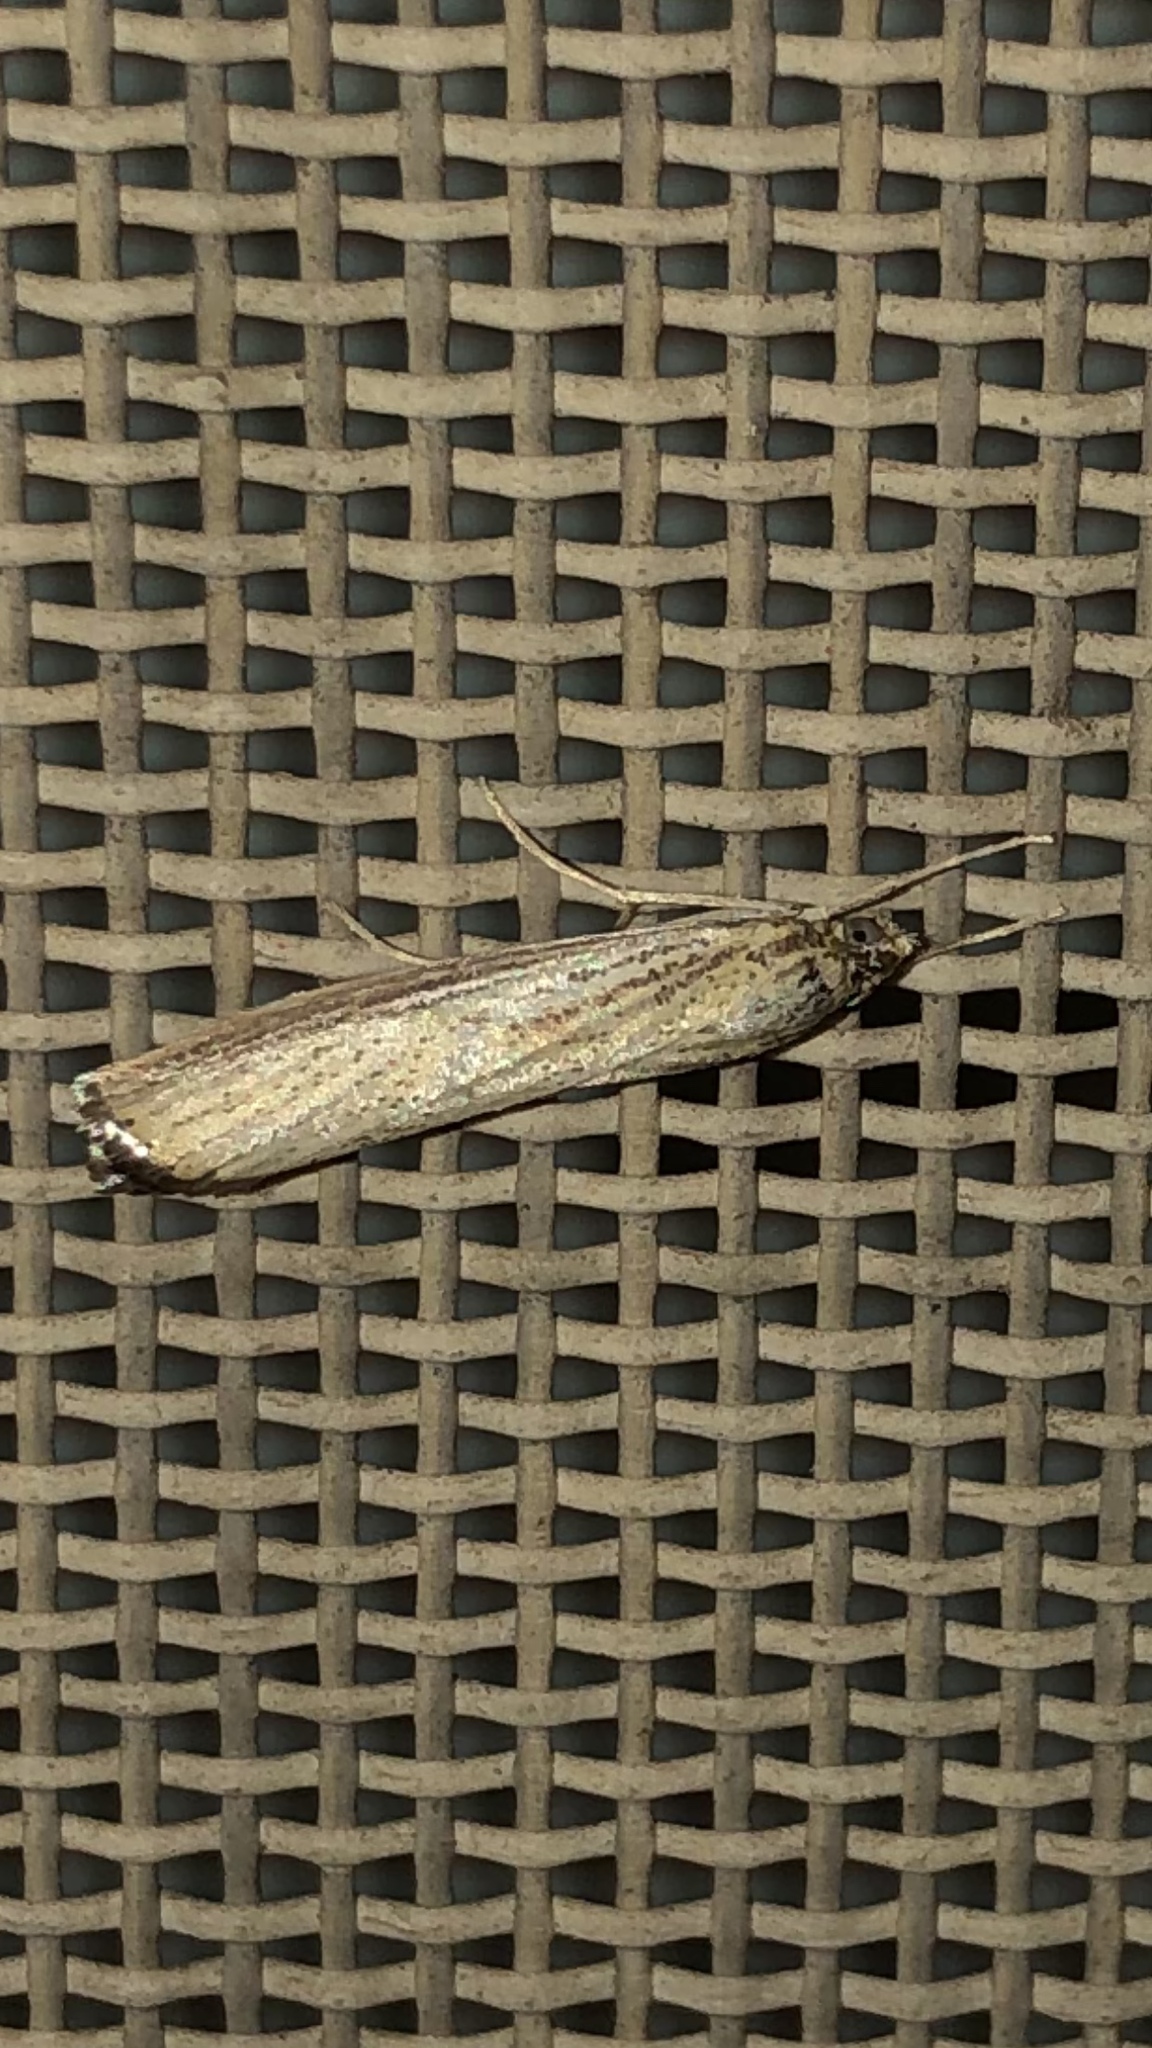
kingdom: Animalia
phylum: Arthropoda
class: Insecta
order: Lepidoptera
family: Crambidae
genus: Agriphila
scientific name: Agriphila vulgivagellus
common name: Vagabond crambus moth
